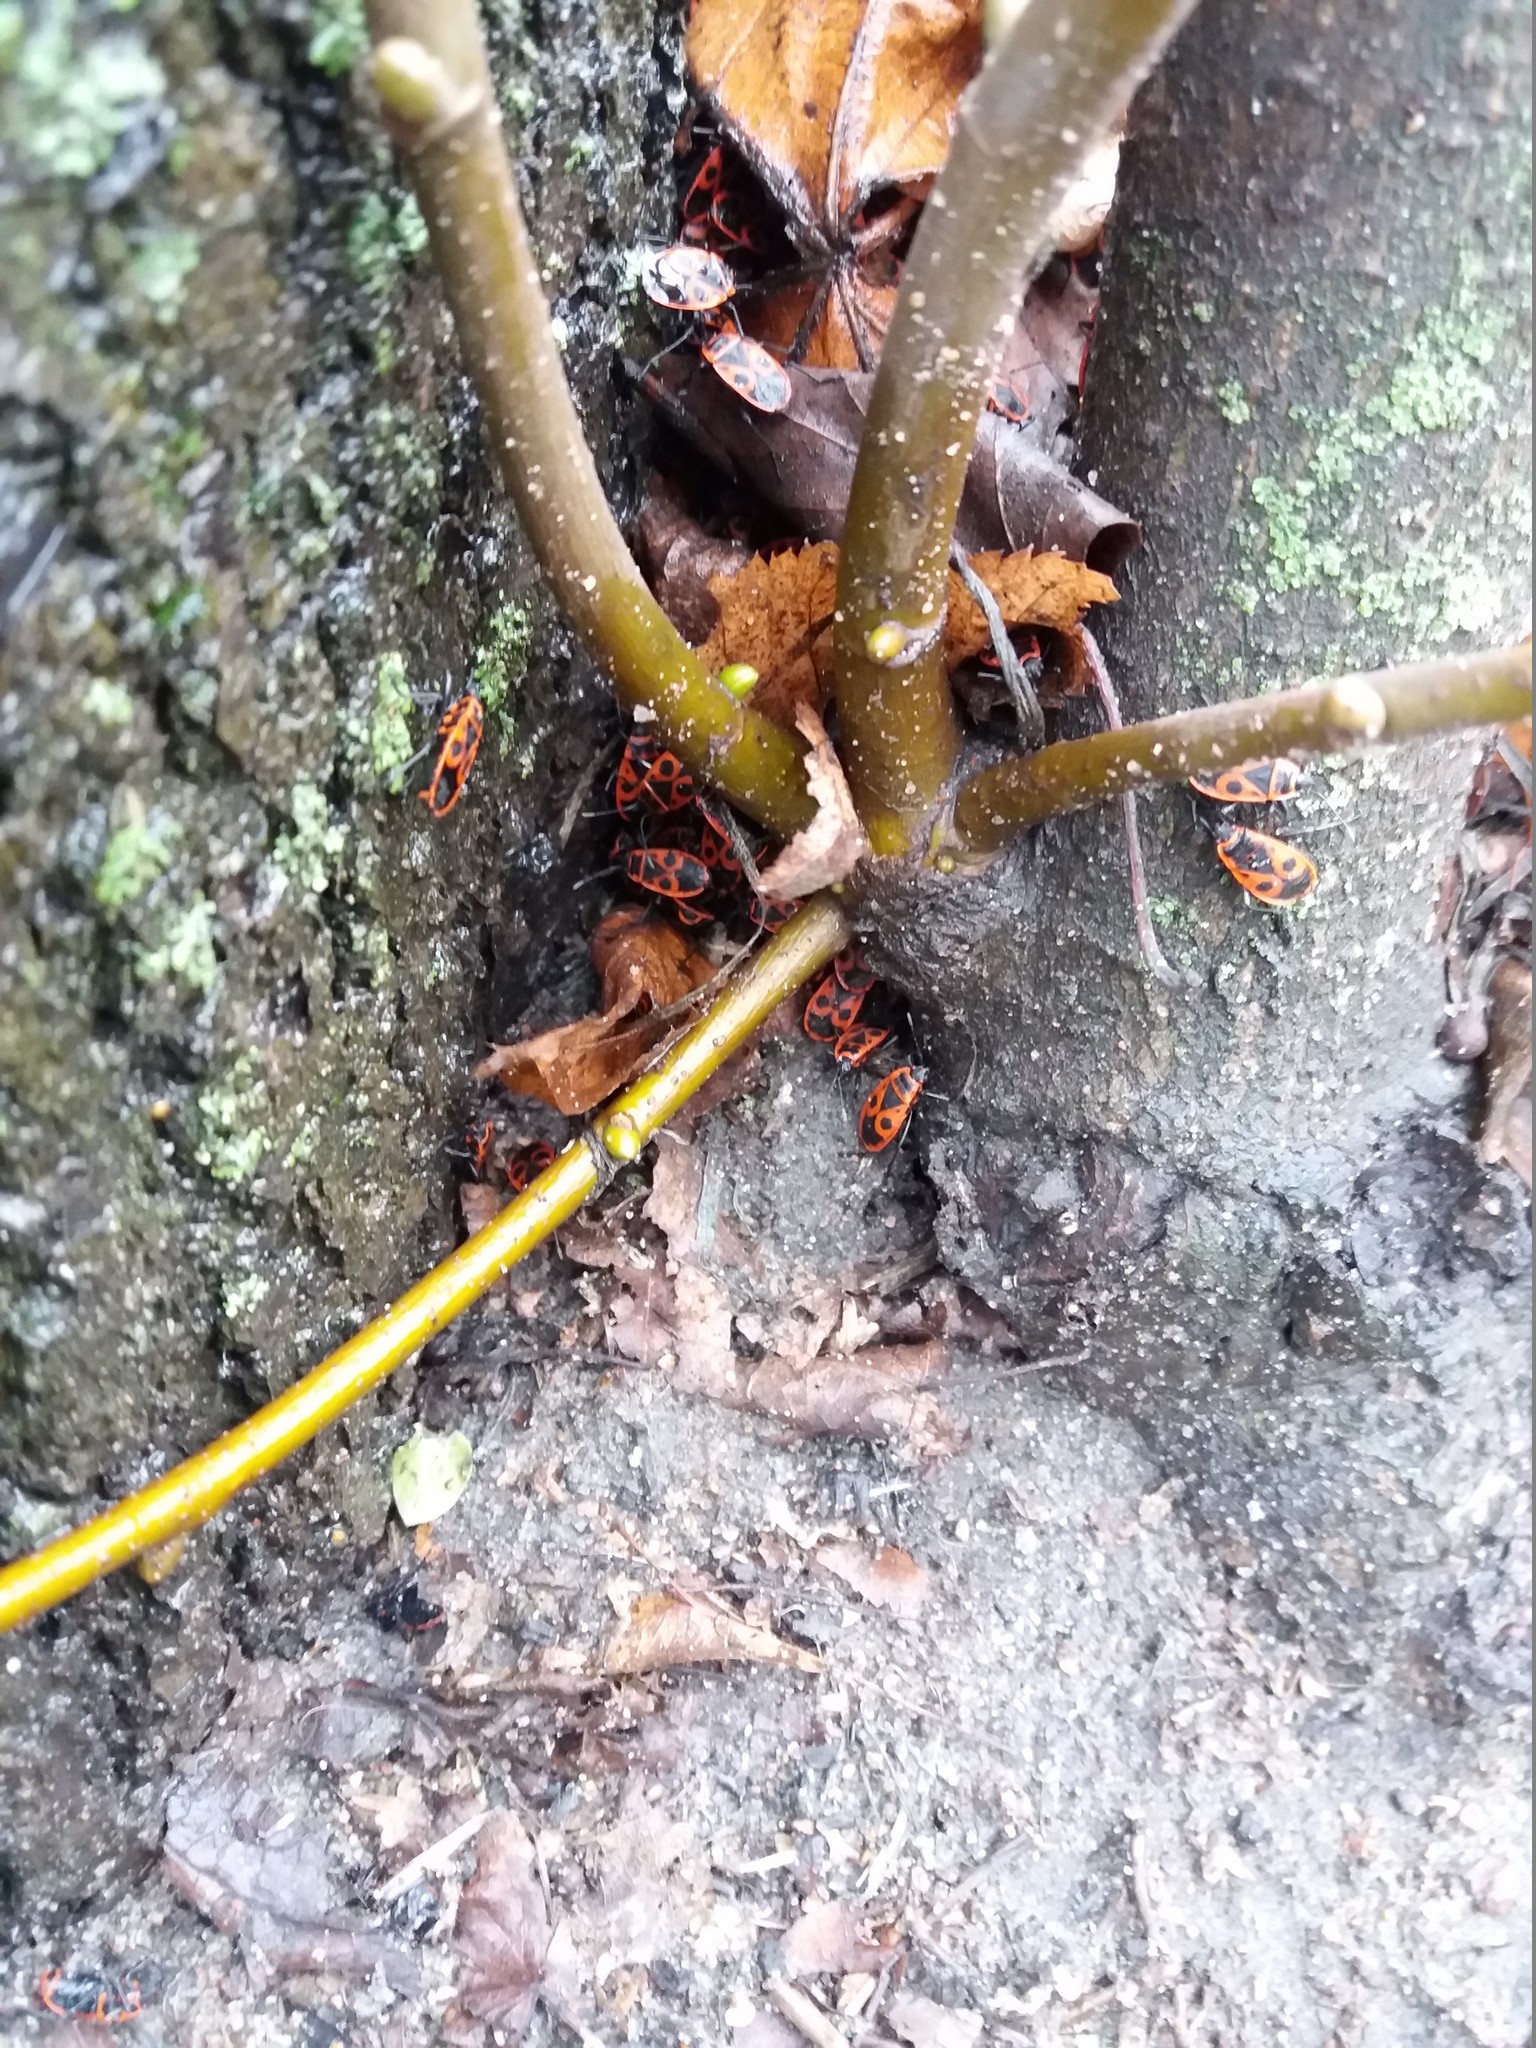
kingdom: Animalia
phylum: Arthropoda
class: Insecta
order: Hemiptera
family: Pyrrhocoridae
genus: Pyrrhocoris
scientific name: Pyrrhocoris apterus
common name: Firebug
